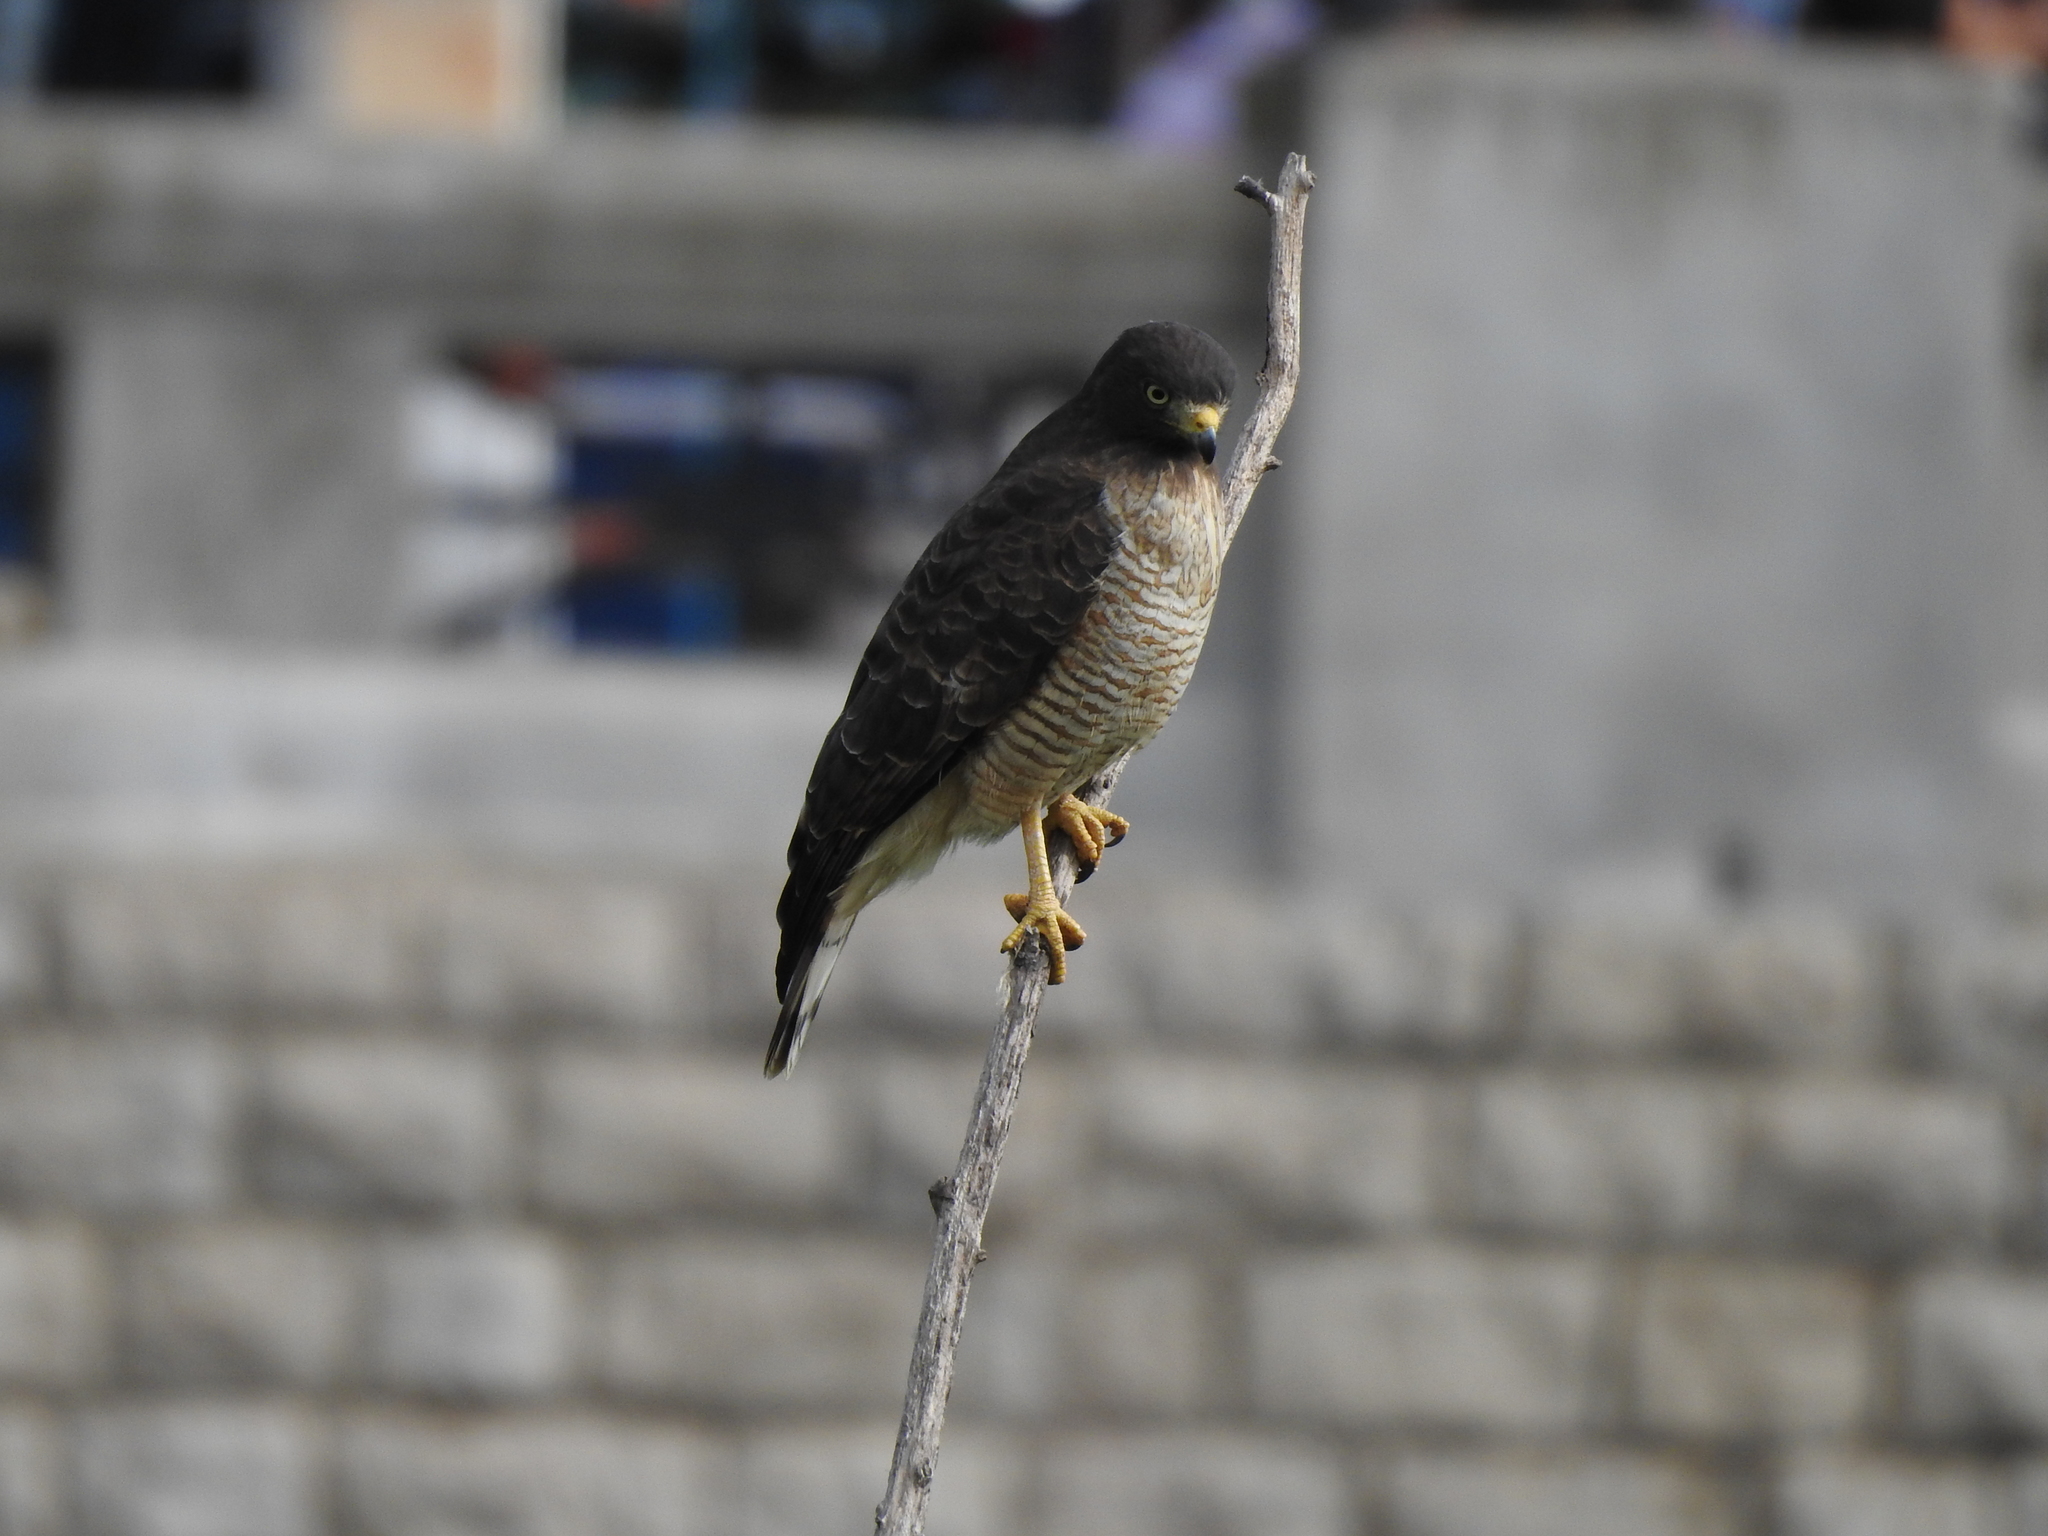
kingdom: Animalia
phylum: Chordata
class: Aves
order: Accipitriformes
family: Accipitridae
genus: Rupornis
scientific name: Rupornis magnirostris
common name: Roadside hawk
